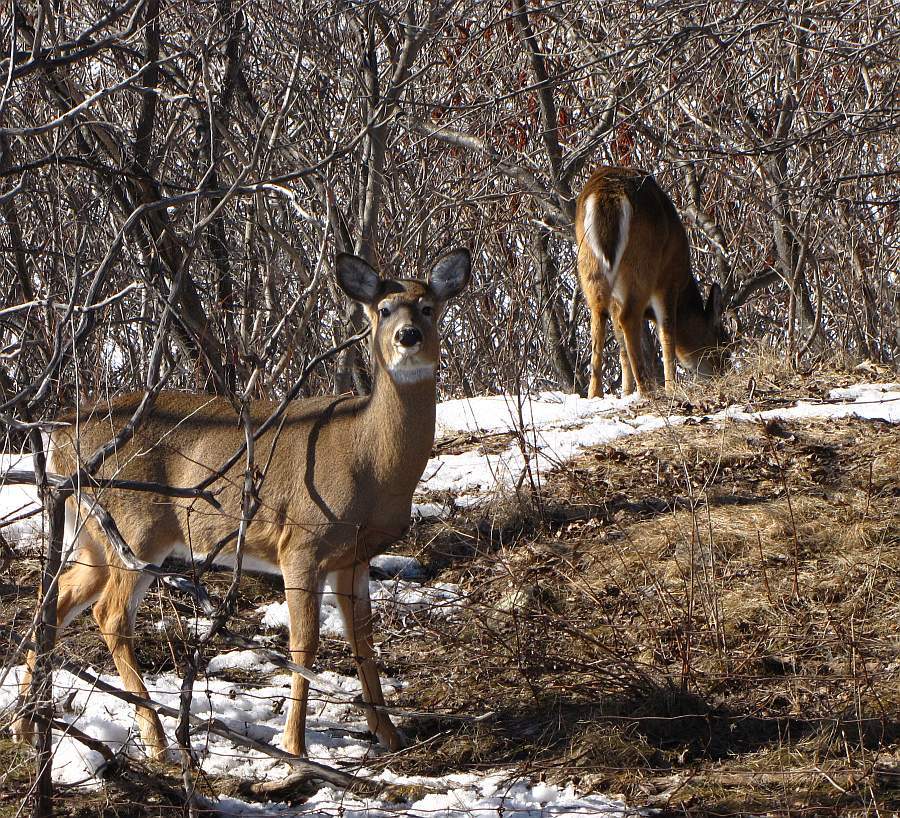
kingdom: Animalia
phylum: Chordata
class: Mammalia
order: Artiodactyla
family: Cervidae
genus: Odocoileus
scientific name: Odocoileus virginianus
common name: White-tailed deer
